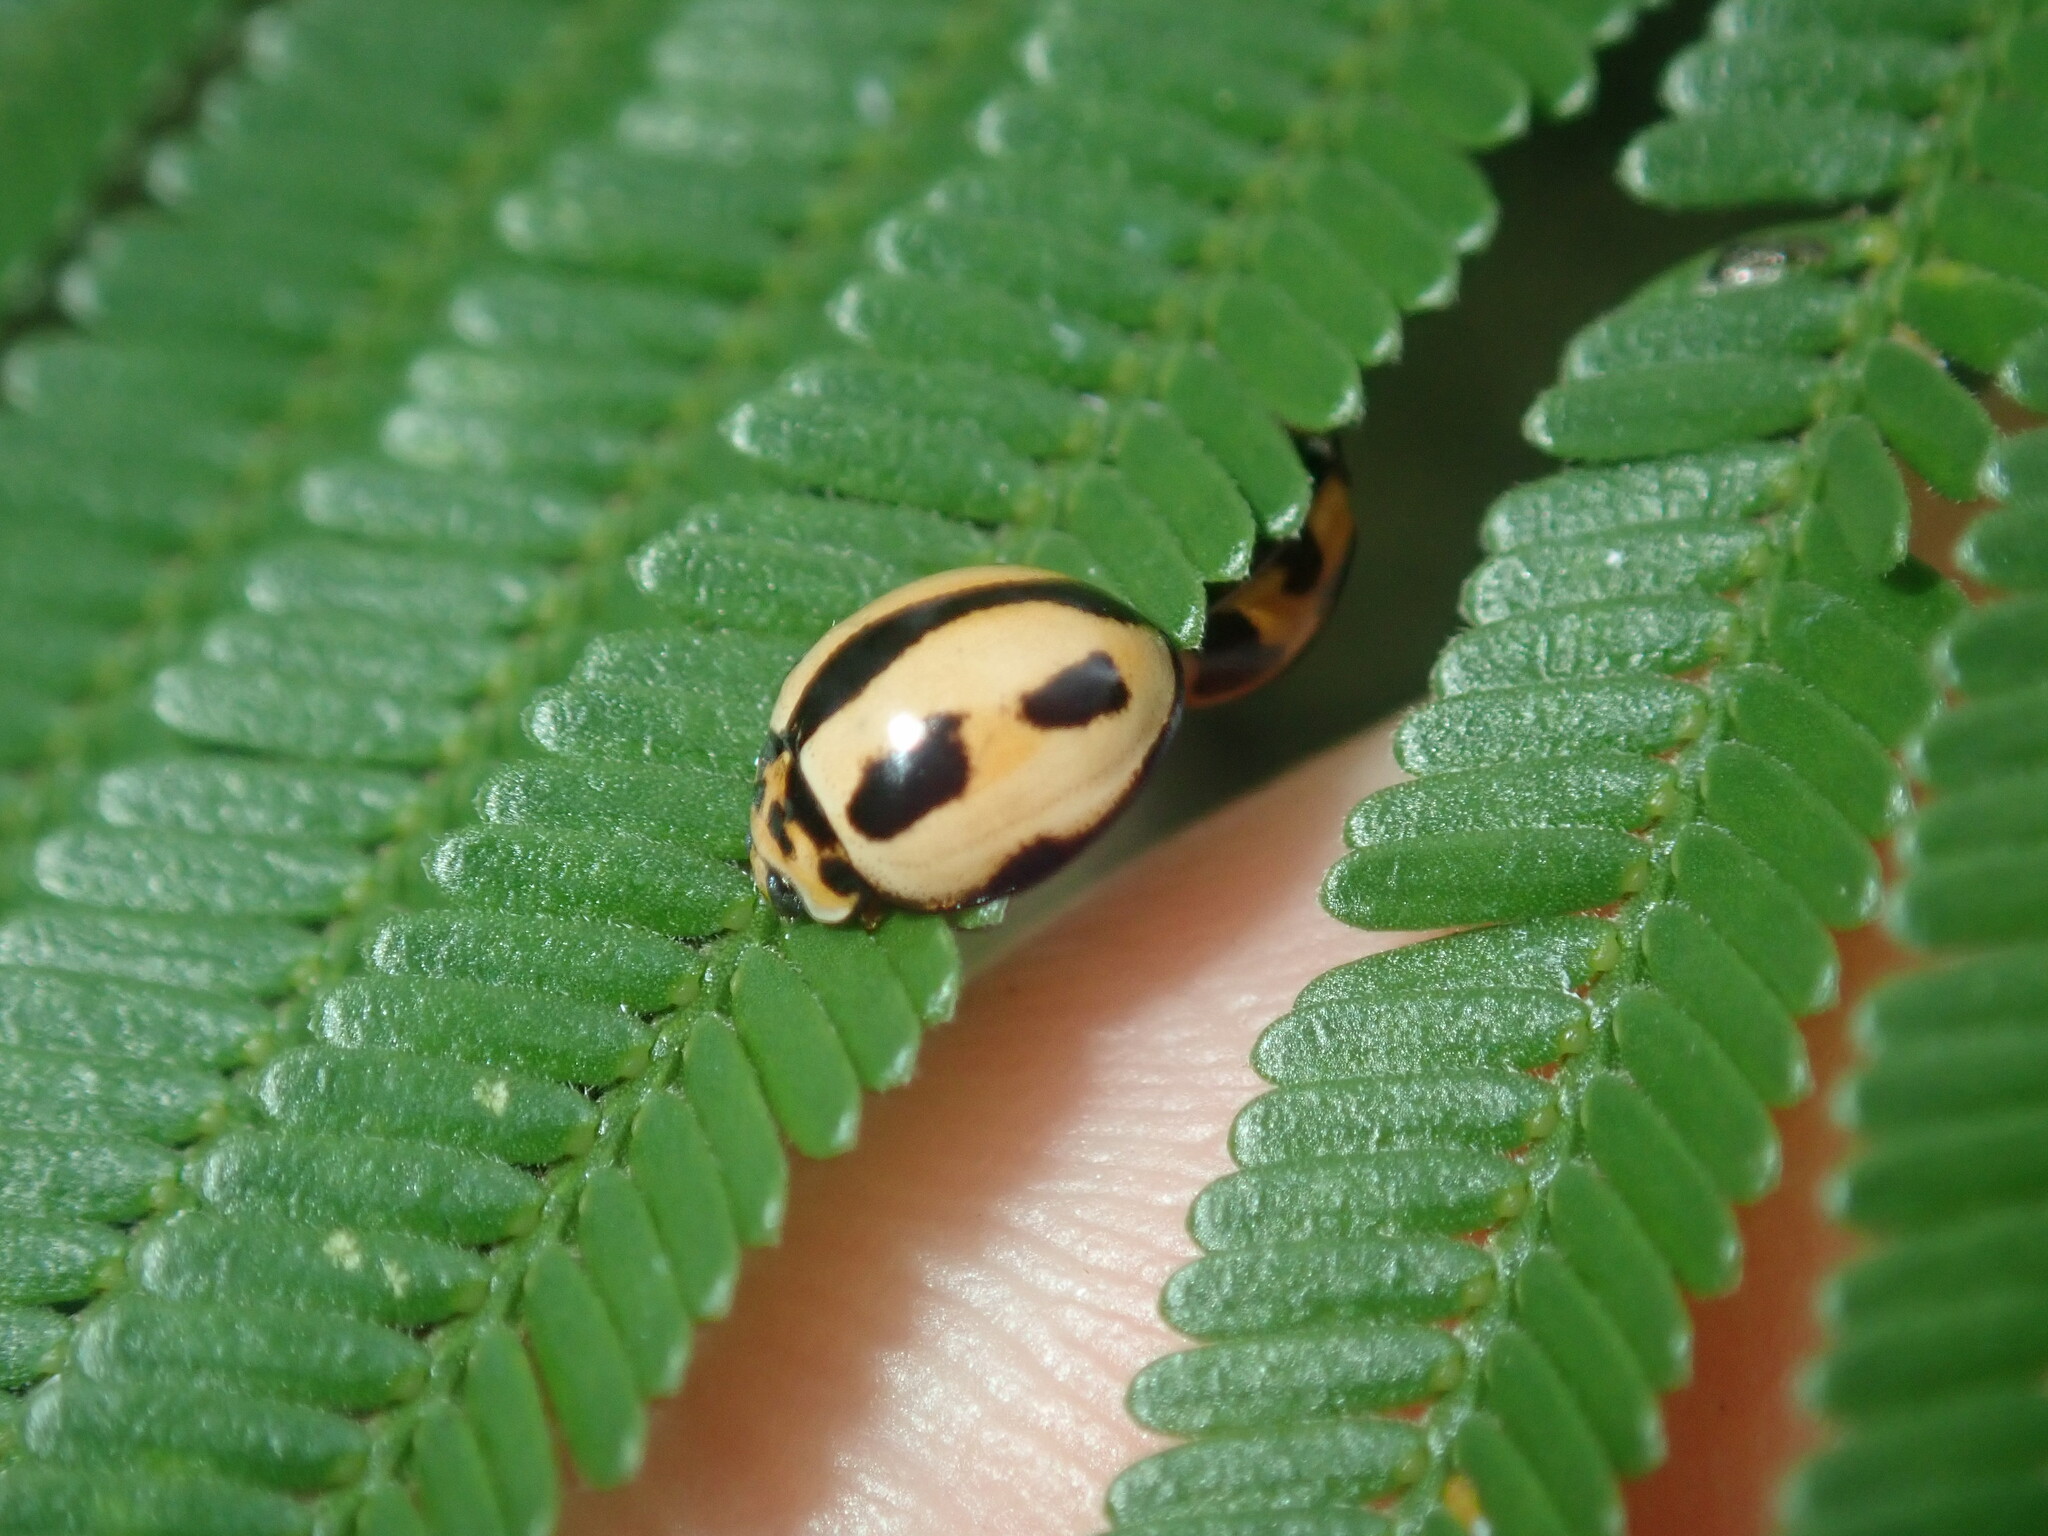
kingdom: Animalia
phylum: Arthropoda
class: Insecta
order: Coleoptera
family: Coccinellidae
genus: Coelophora
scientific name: Coelophora inaequalis
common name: Common australian lady beetle
